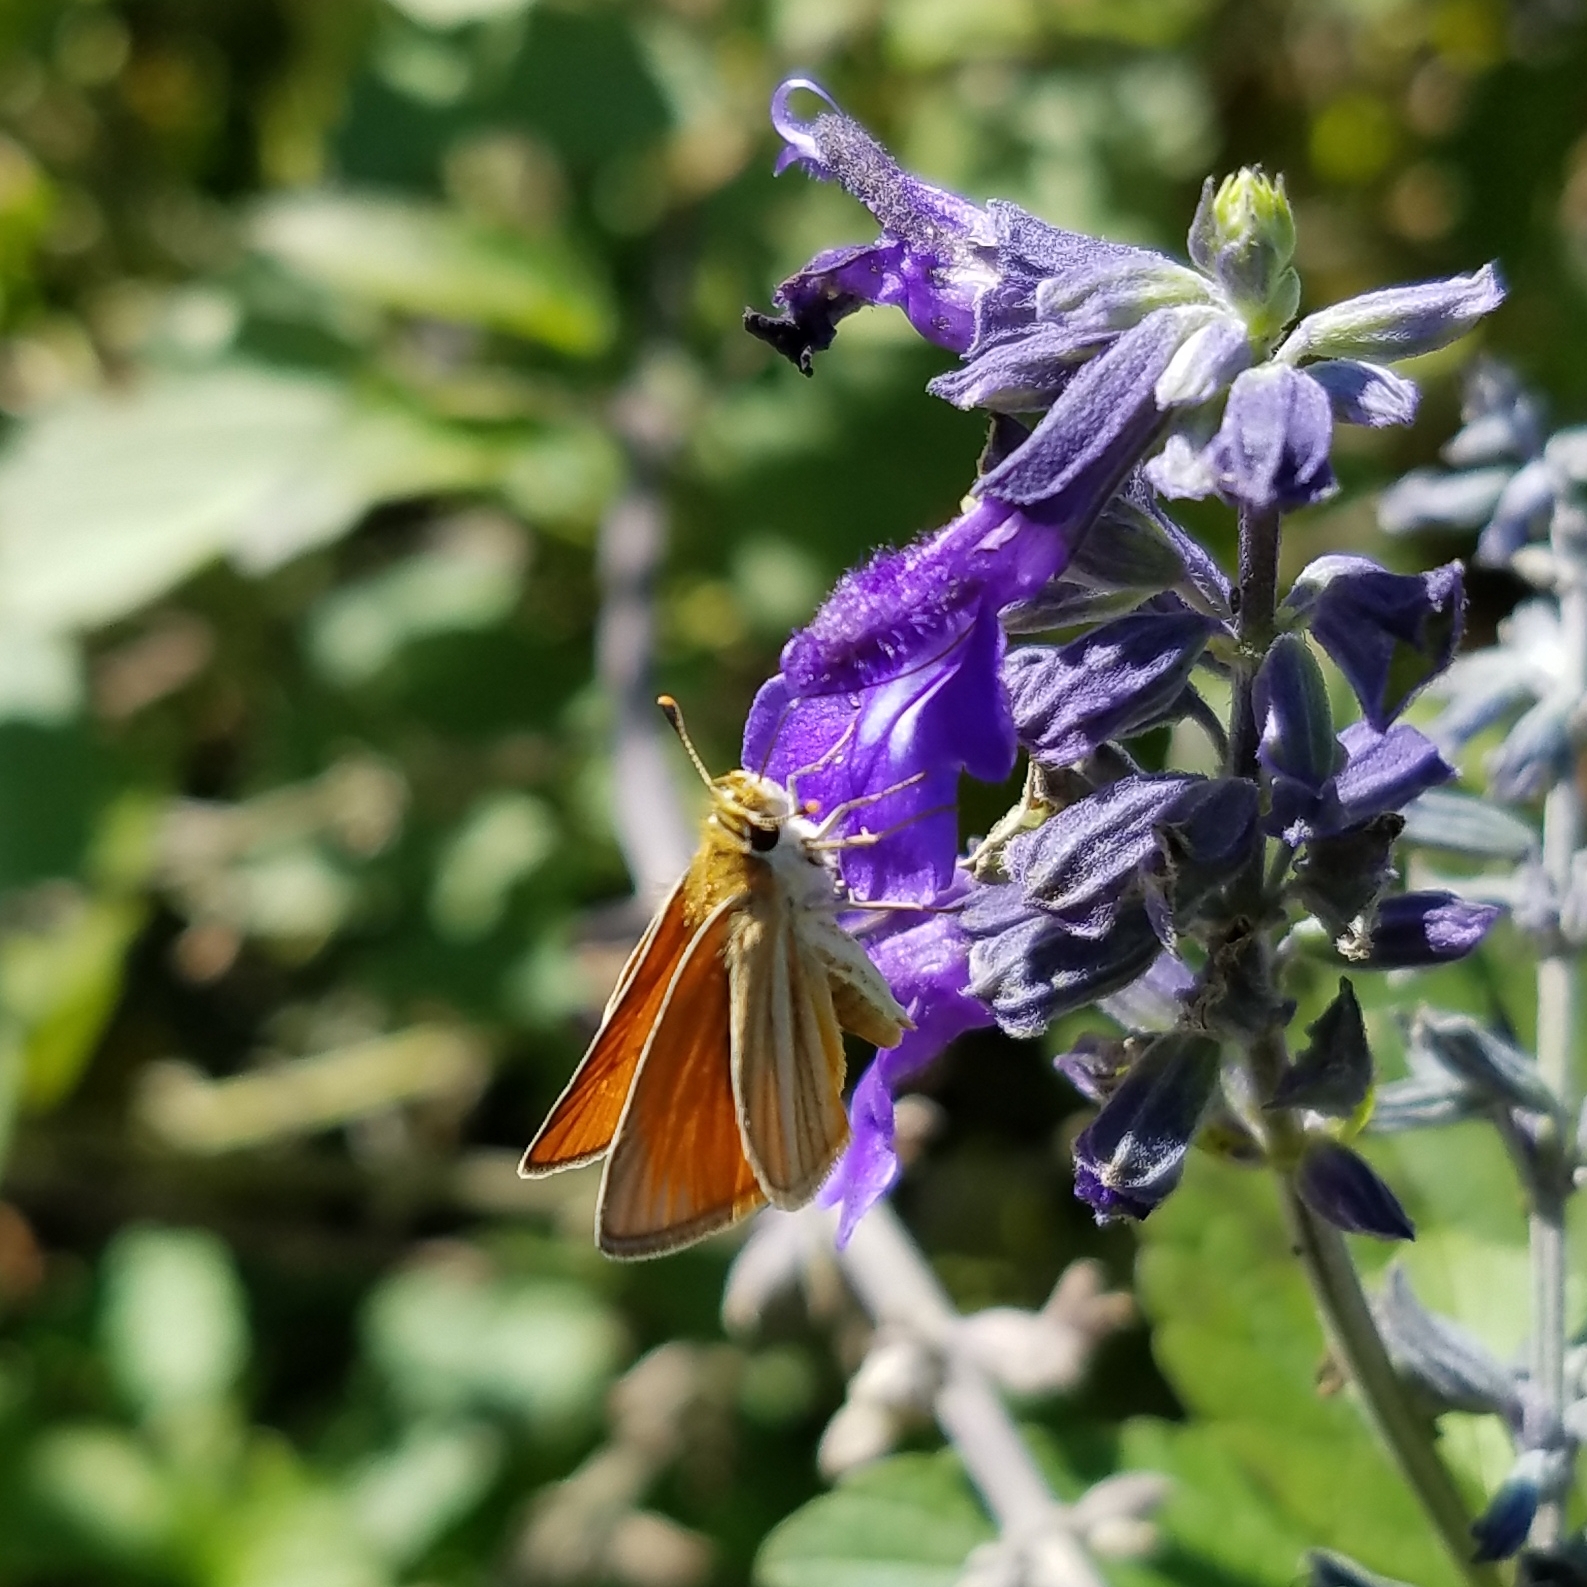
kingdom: Animalia
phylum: Arthropoda
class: Insecta
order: Lepidoptera
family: Hesperiidae
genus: Copaeodes
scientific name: Copaeodes minima
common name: Southern skipperling
